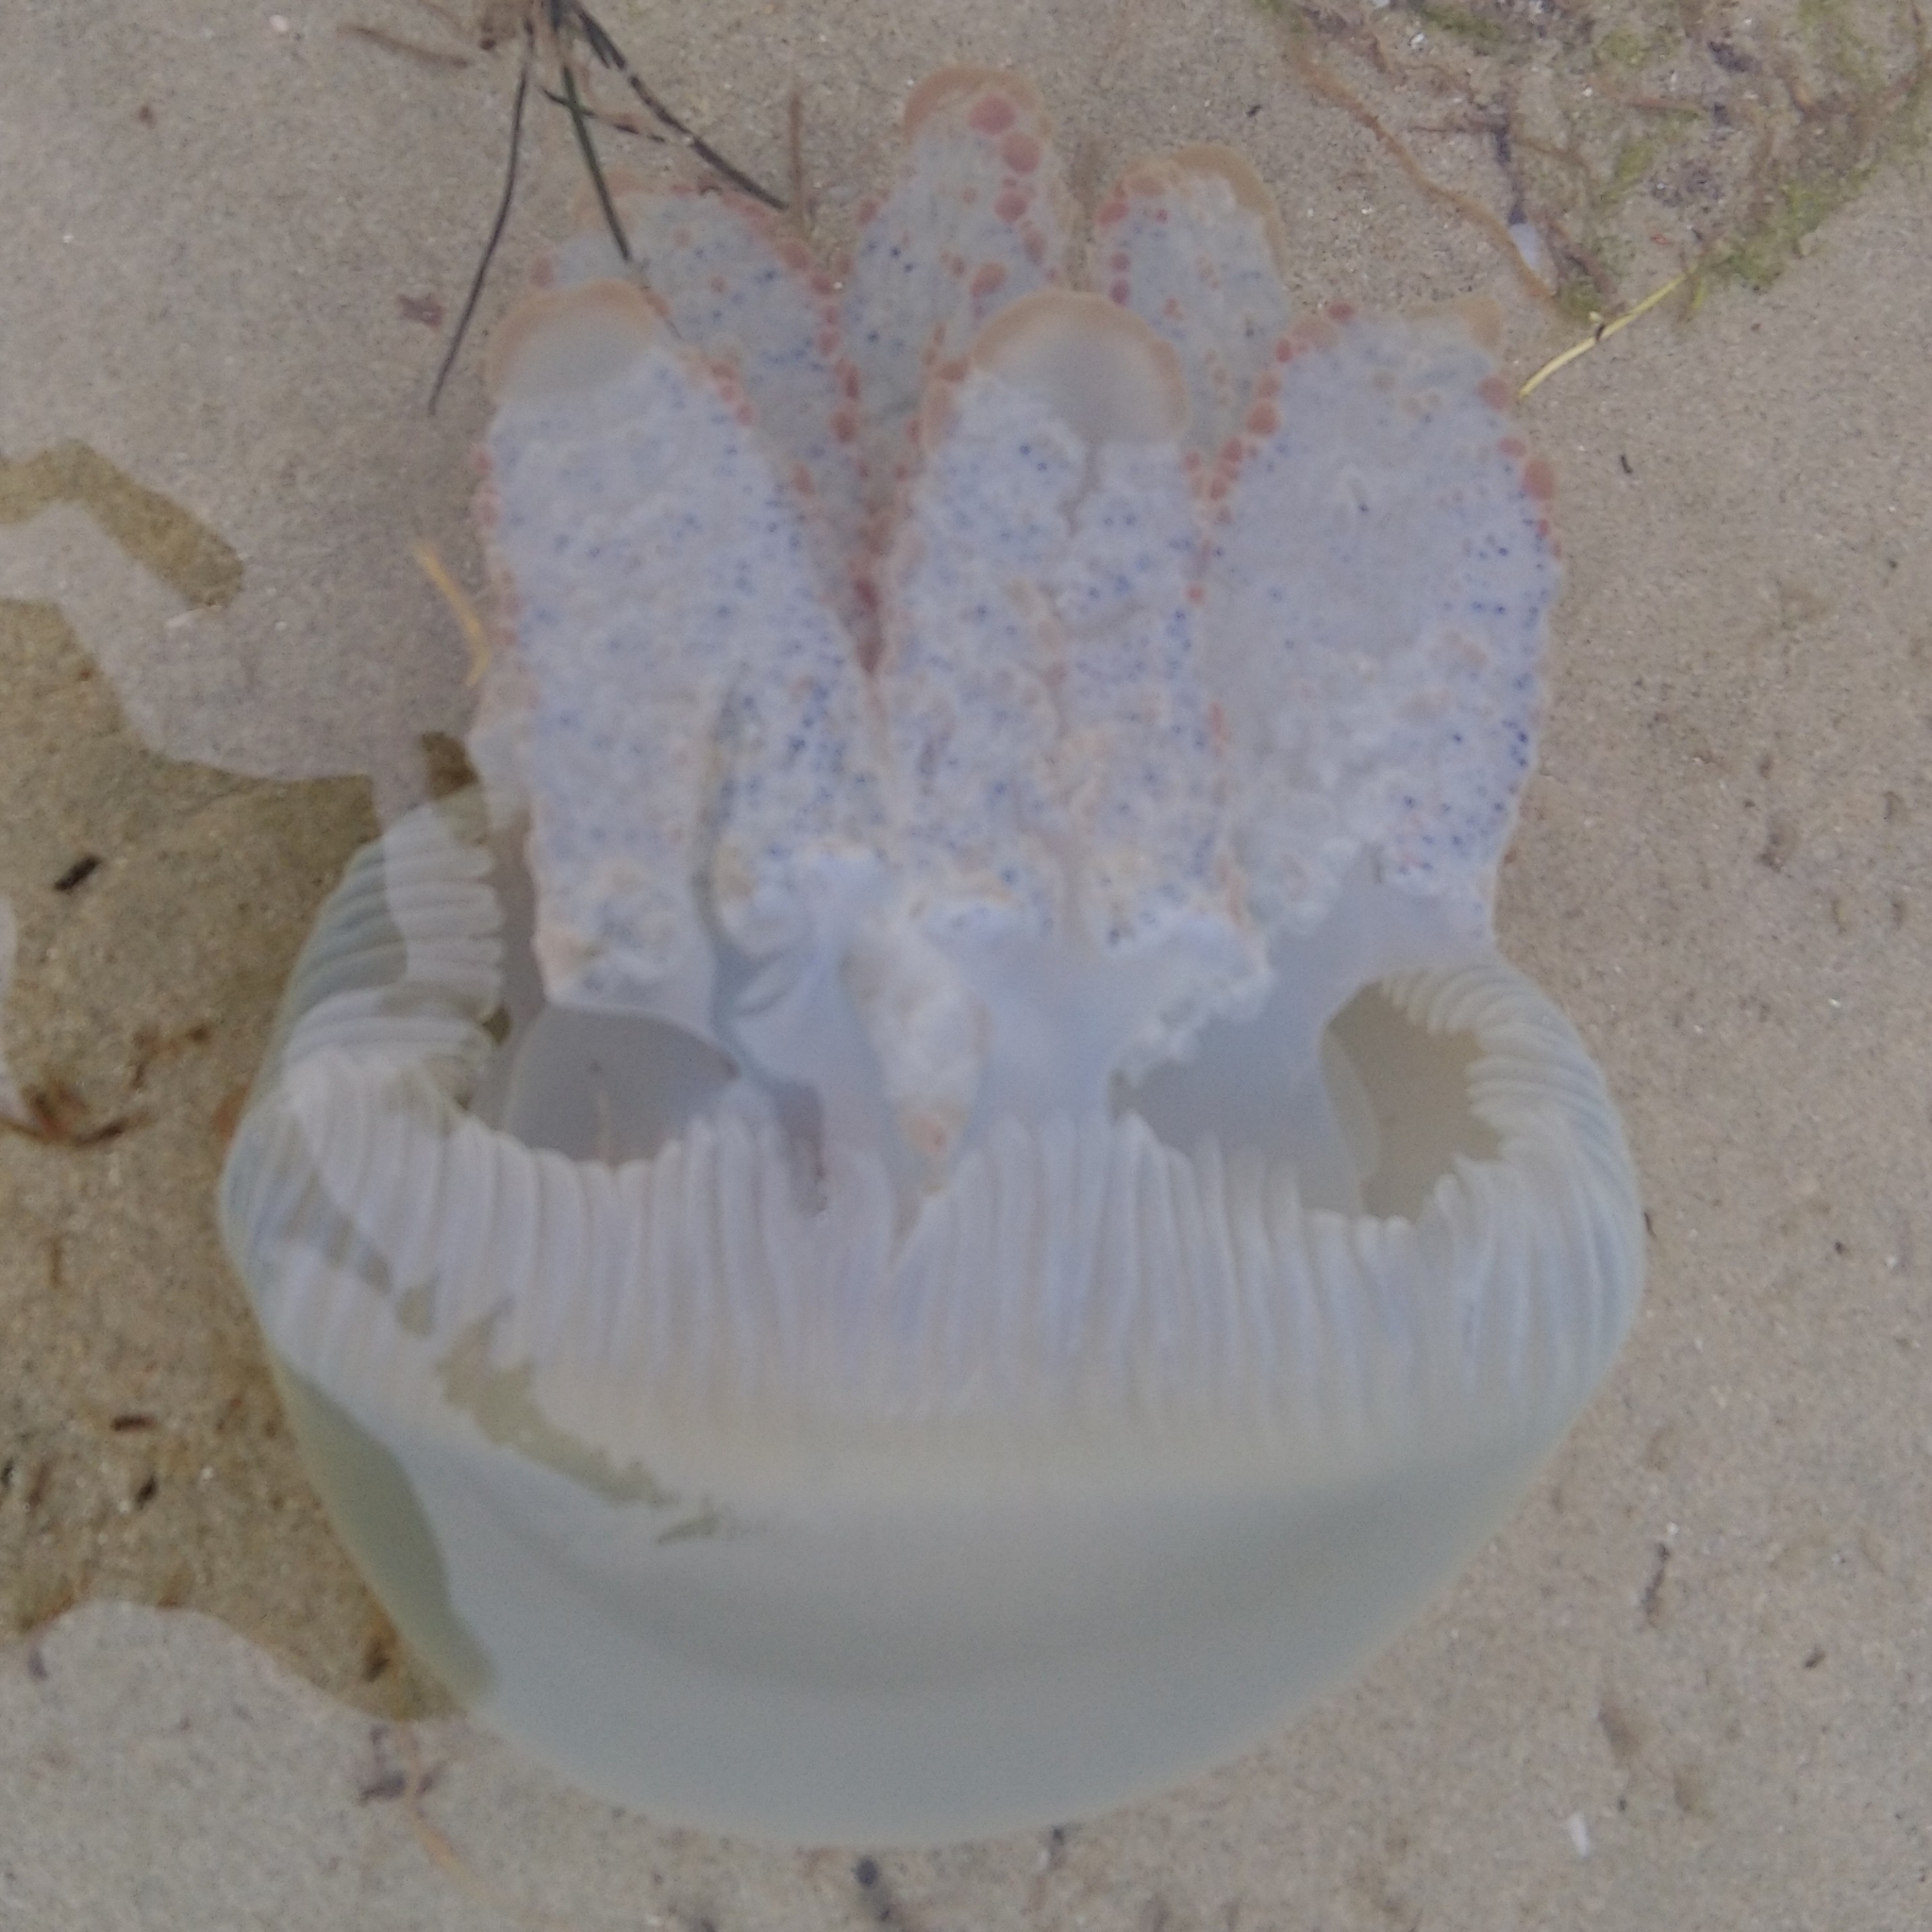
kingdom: Animalia
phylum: Cnidaria
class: Scyphozoa
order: Rhizostomeae
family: Catostylidae
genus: Crambionella
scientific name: Crambionella stuhlmanni
